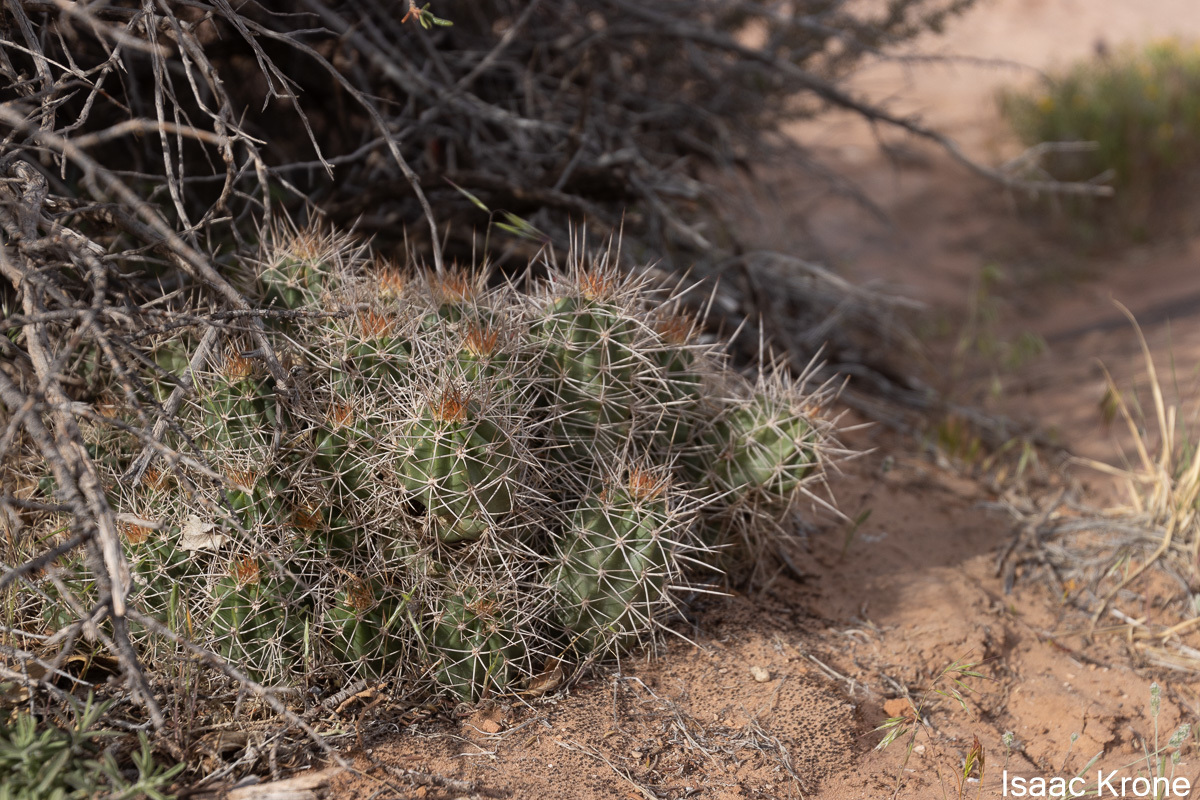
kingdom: Plantae
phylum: Tracheophyta
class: Magnoliopsida
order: Caryophyllales
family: Cactaceae
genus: Echinocereus
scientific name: Echinocereus triglochidiatus
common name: Claretcup hedgehog
